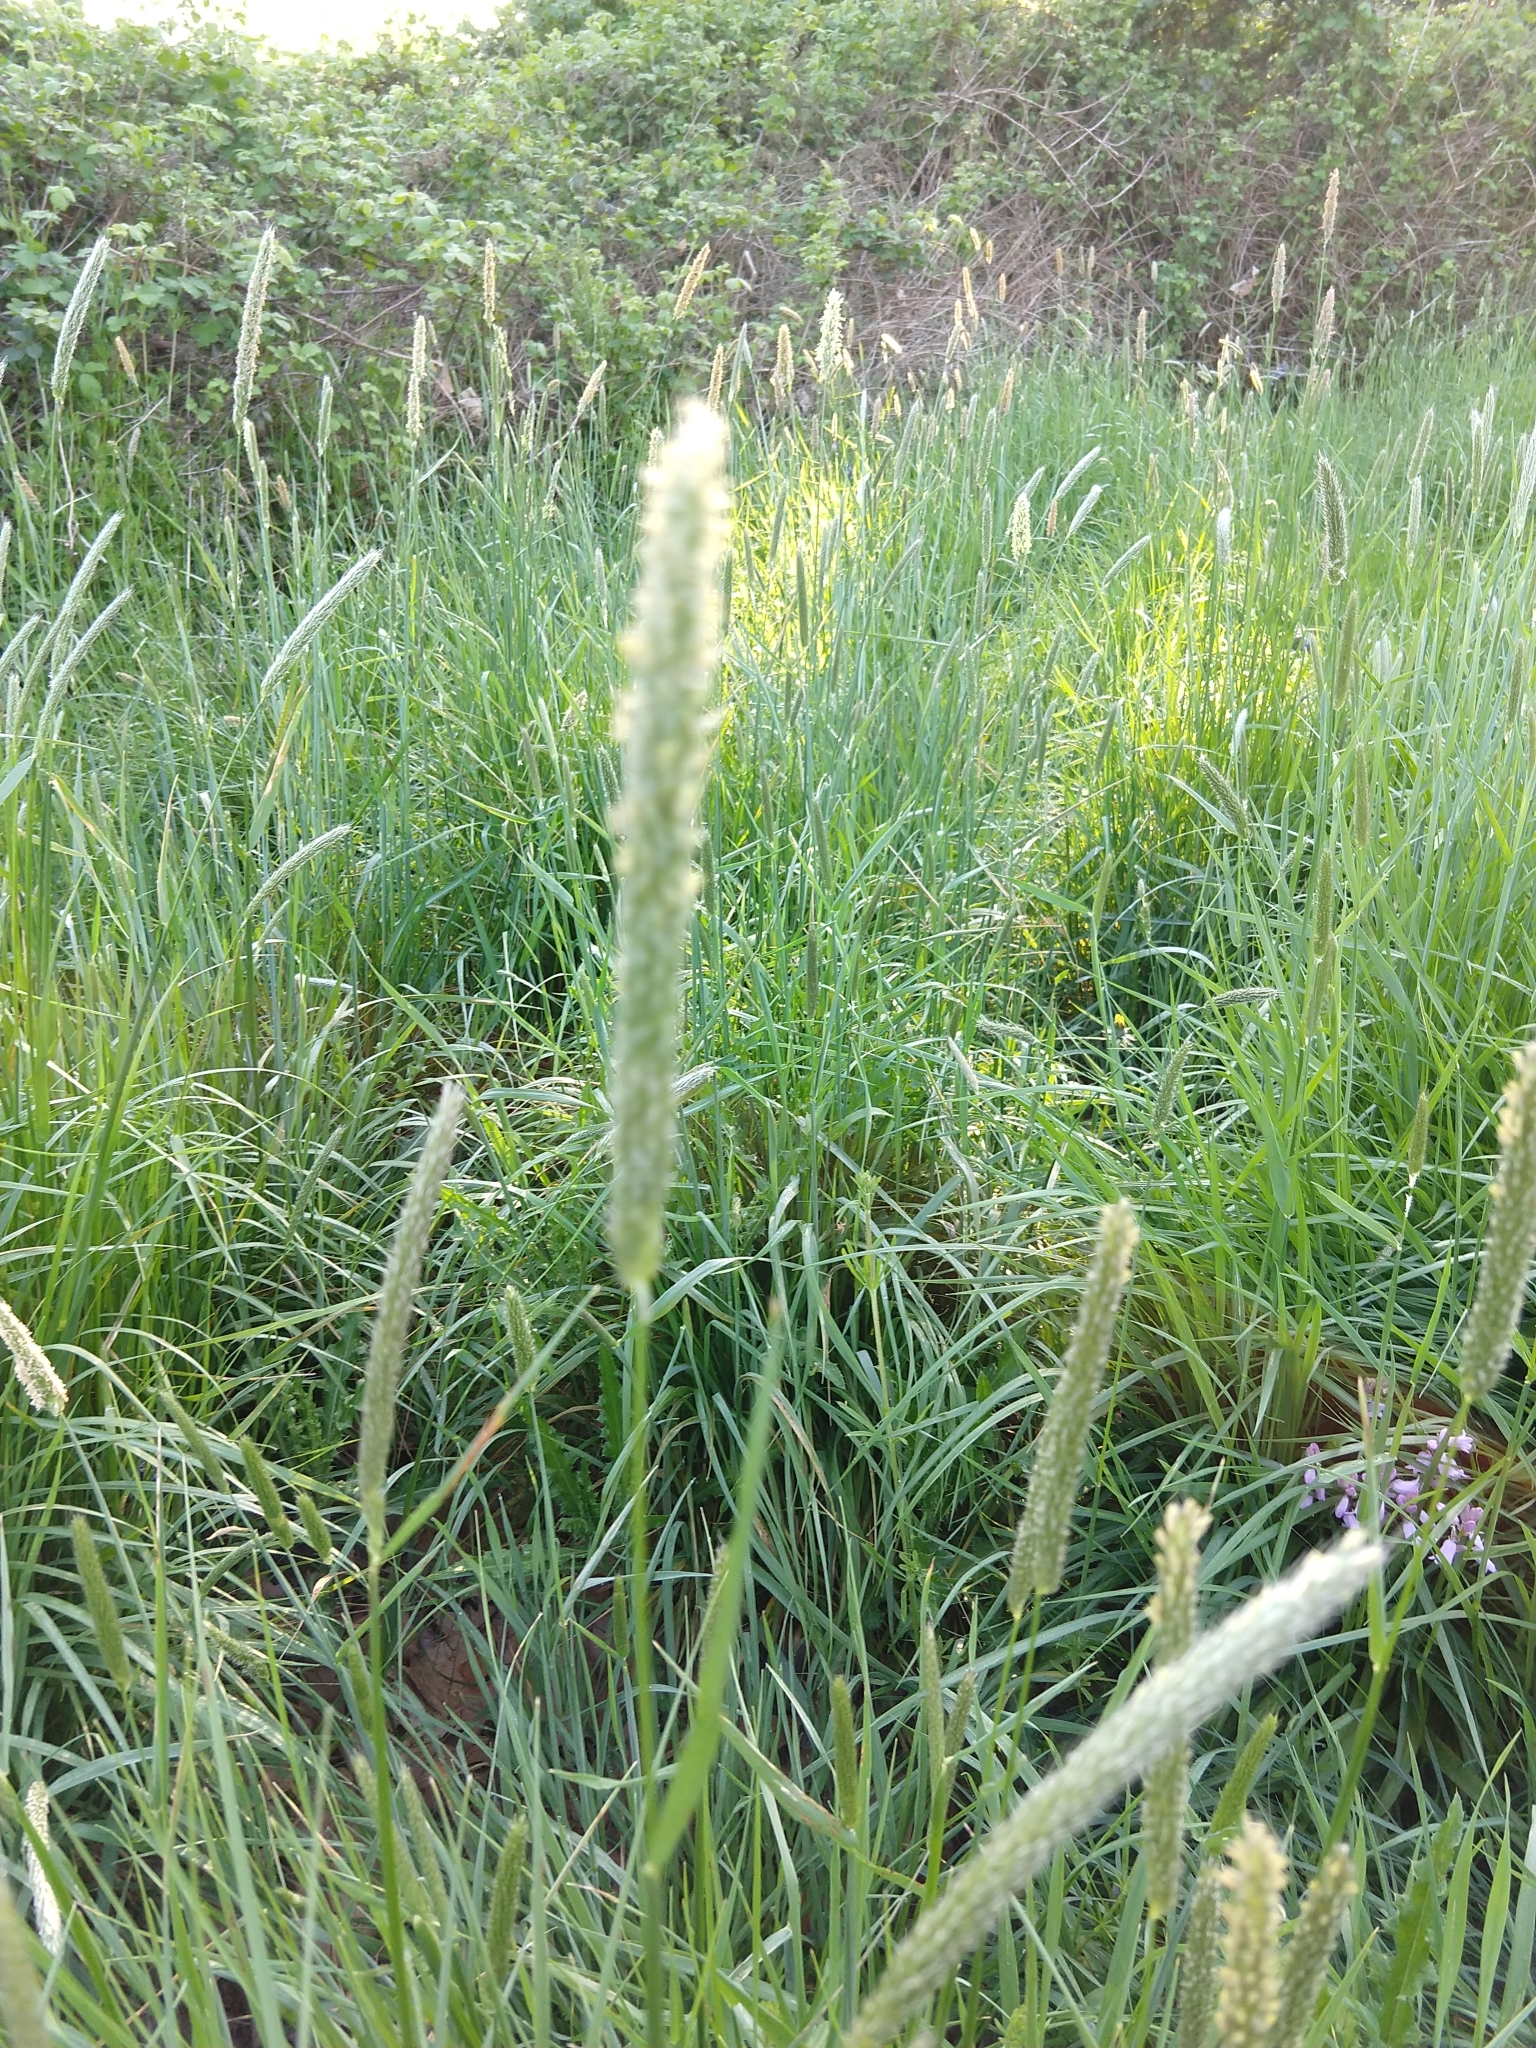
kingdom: Plantae
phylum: Tracheophyta
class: Liliopsida
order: Poales
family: Poaceae
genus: Alopecurus
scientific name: Alopecurus pratensis
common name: Meadow foxtail
